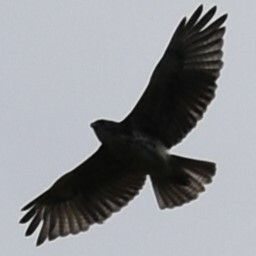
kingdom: Animalia
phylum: Chordata
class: Aves
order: Accipitriformes
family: Accipitridae
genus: Buteo
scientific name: Buteo solitarius
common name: Hawaiian hawk
